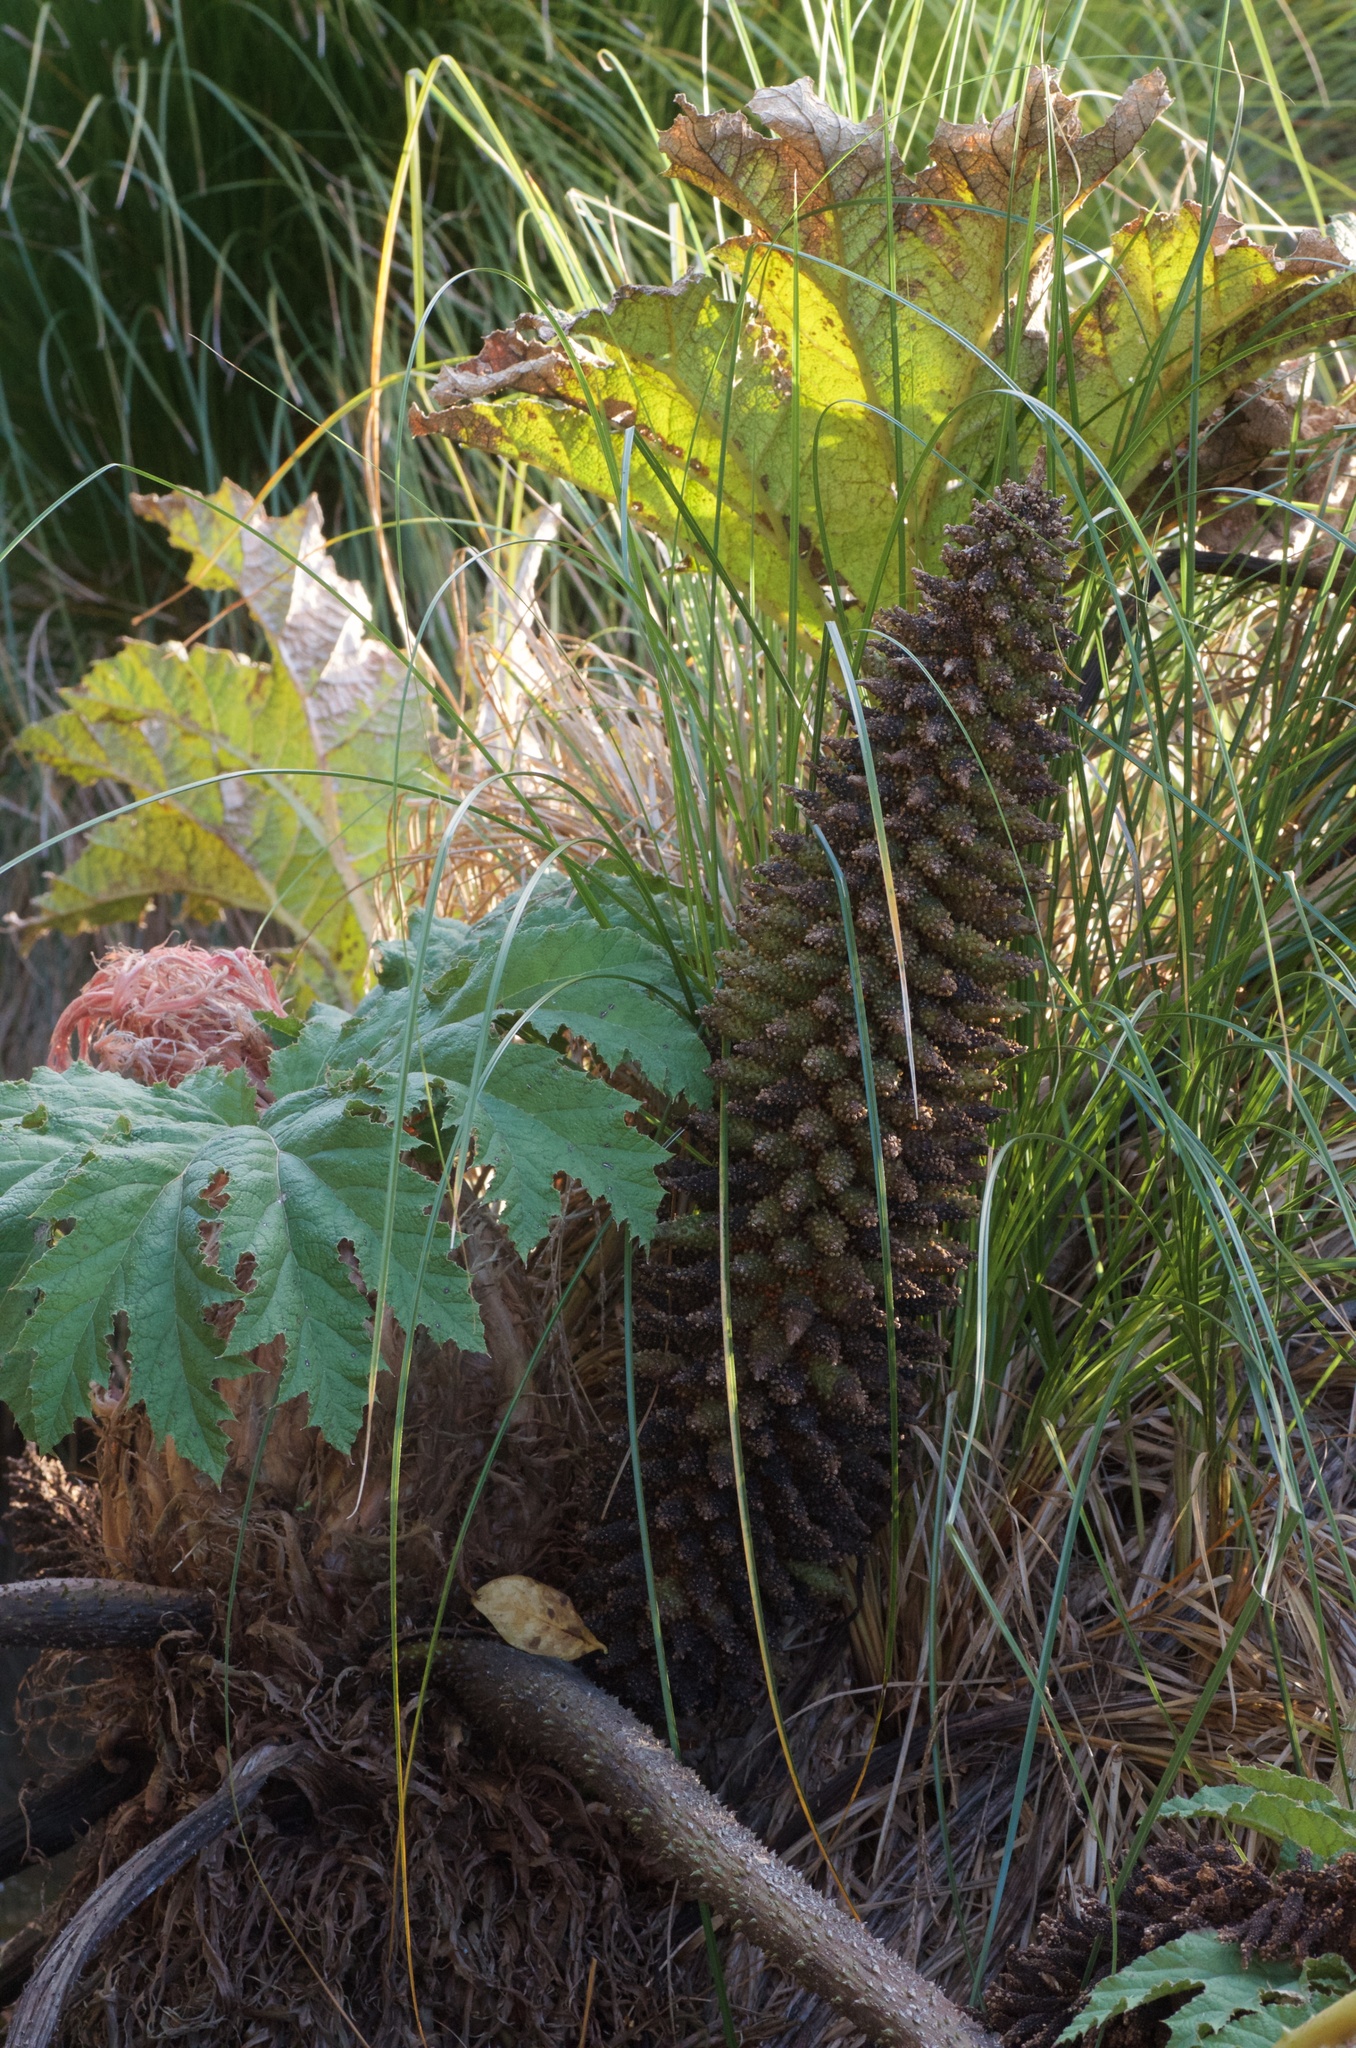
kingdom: Plantae
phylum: Tracheophyta
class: Magnoliopsida
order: Gunnerales
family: Gunneraceae
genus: Gunnera
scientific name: Gunnera tinctoria
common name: Giant-rhubarb
